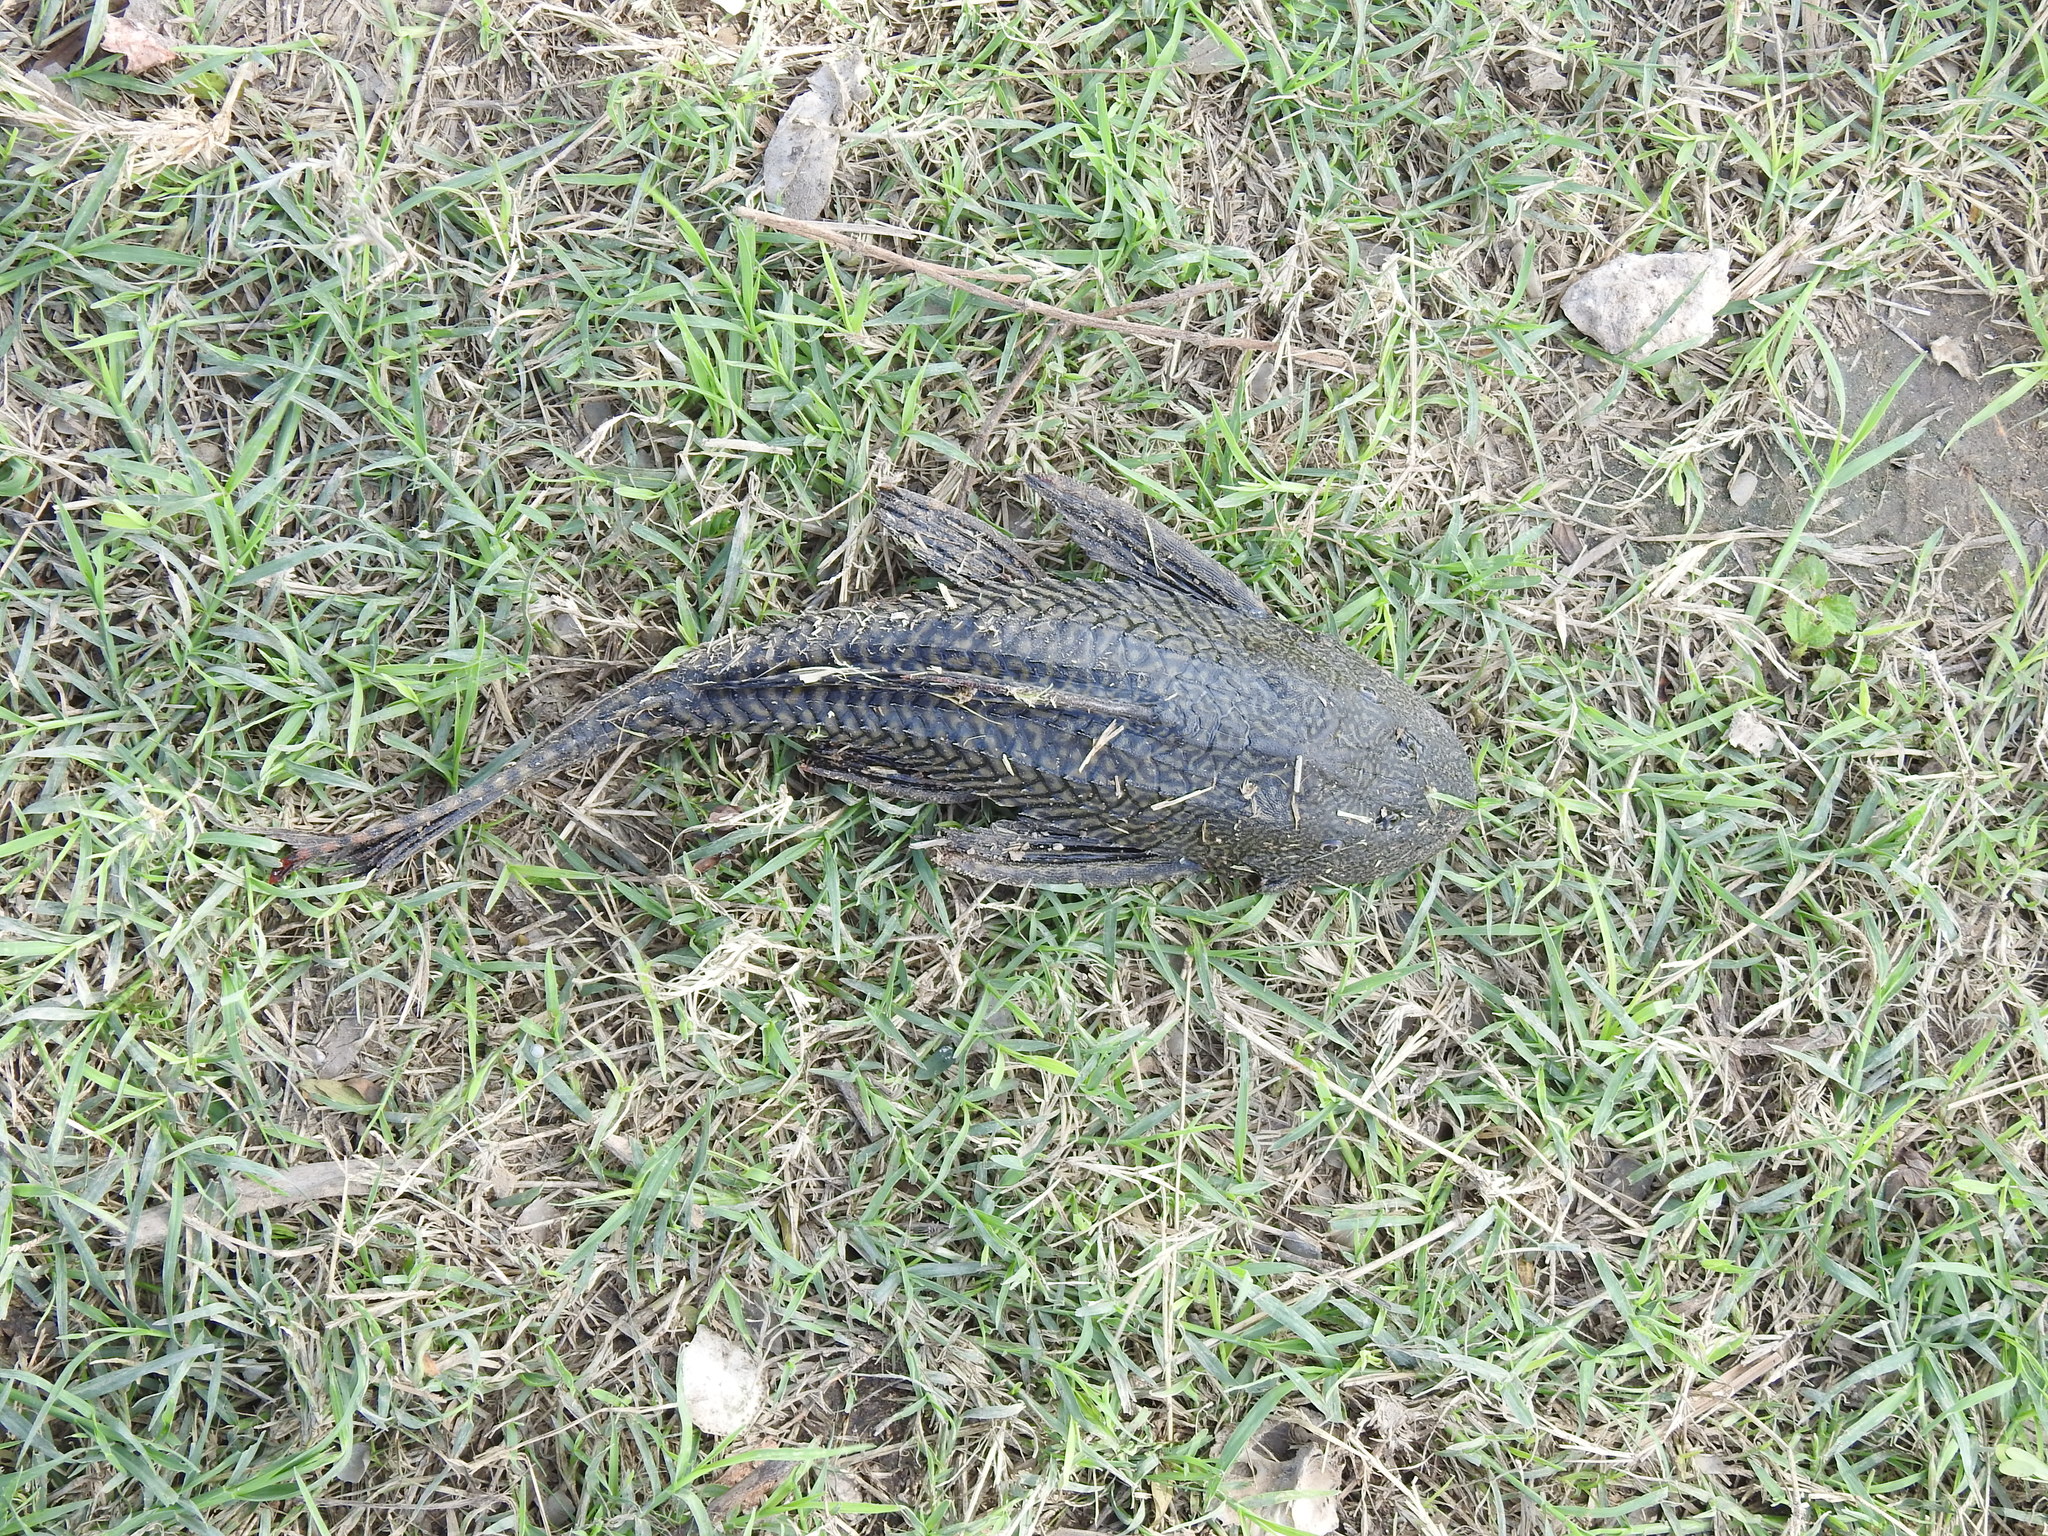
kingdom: Animalia
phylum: Chordata
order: Siluriformes
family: Loricariidae
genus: Pterygoplichthys
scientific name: Pterygoplichthys
